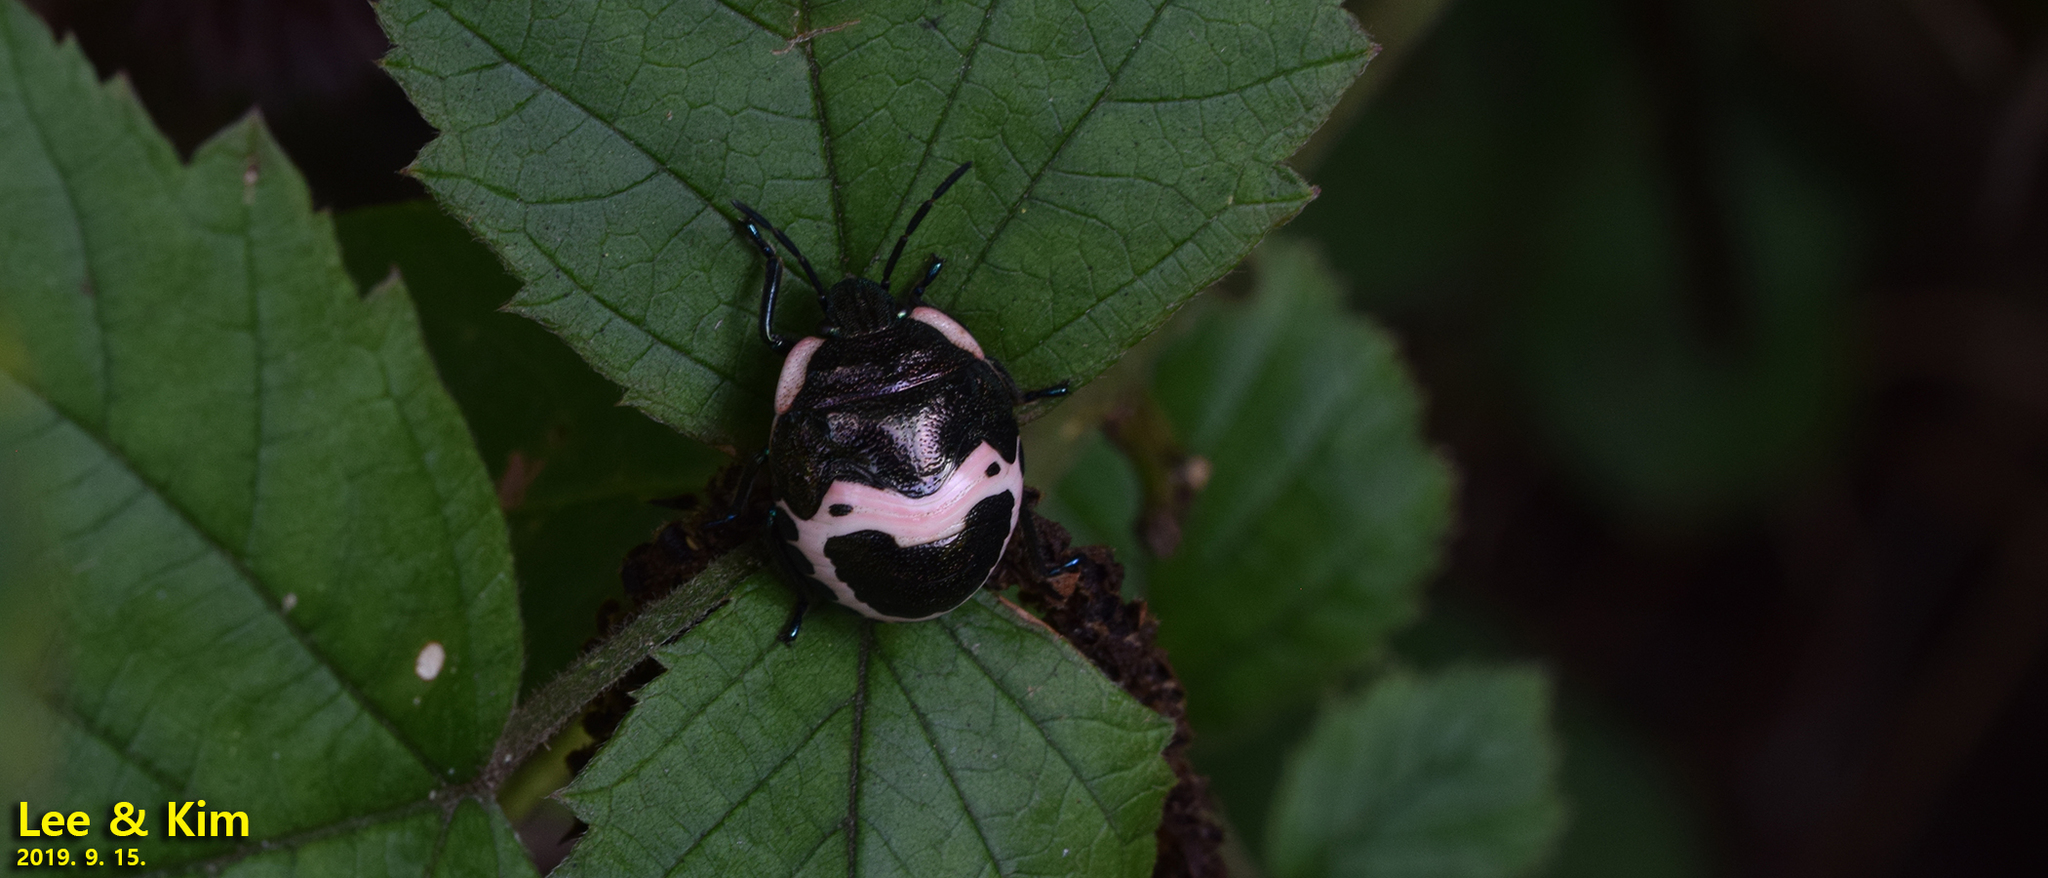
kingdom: Animalia
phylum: Arthropoda
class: Insecta
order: Hemiptera
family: Scutelleridae
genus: Poecilocoris
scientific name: Poecilocoris lewisi
